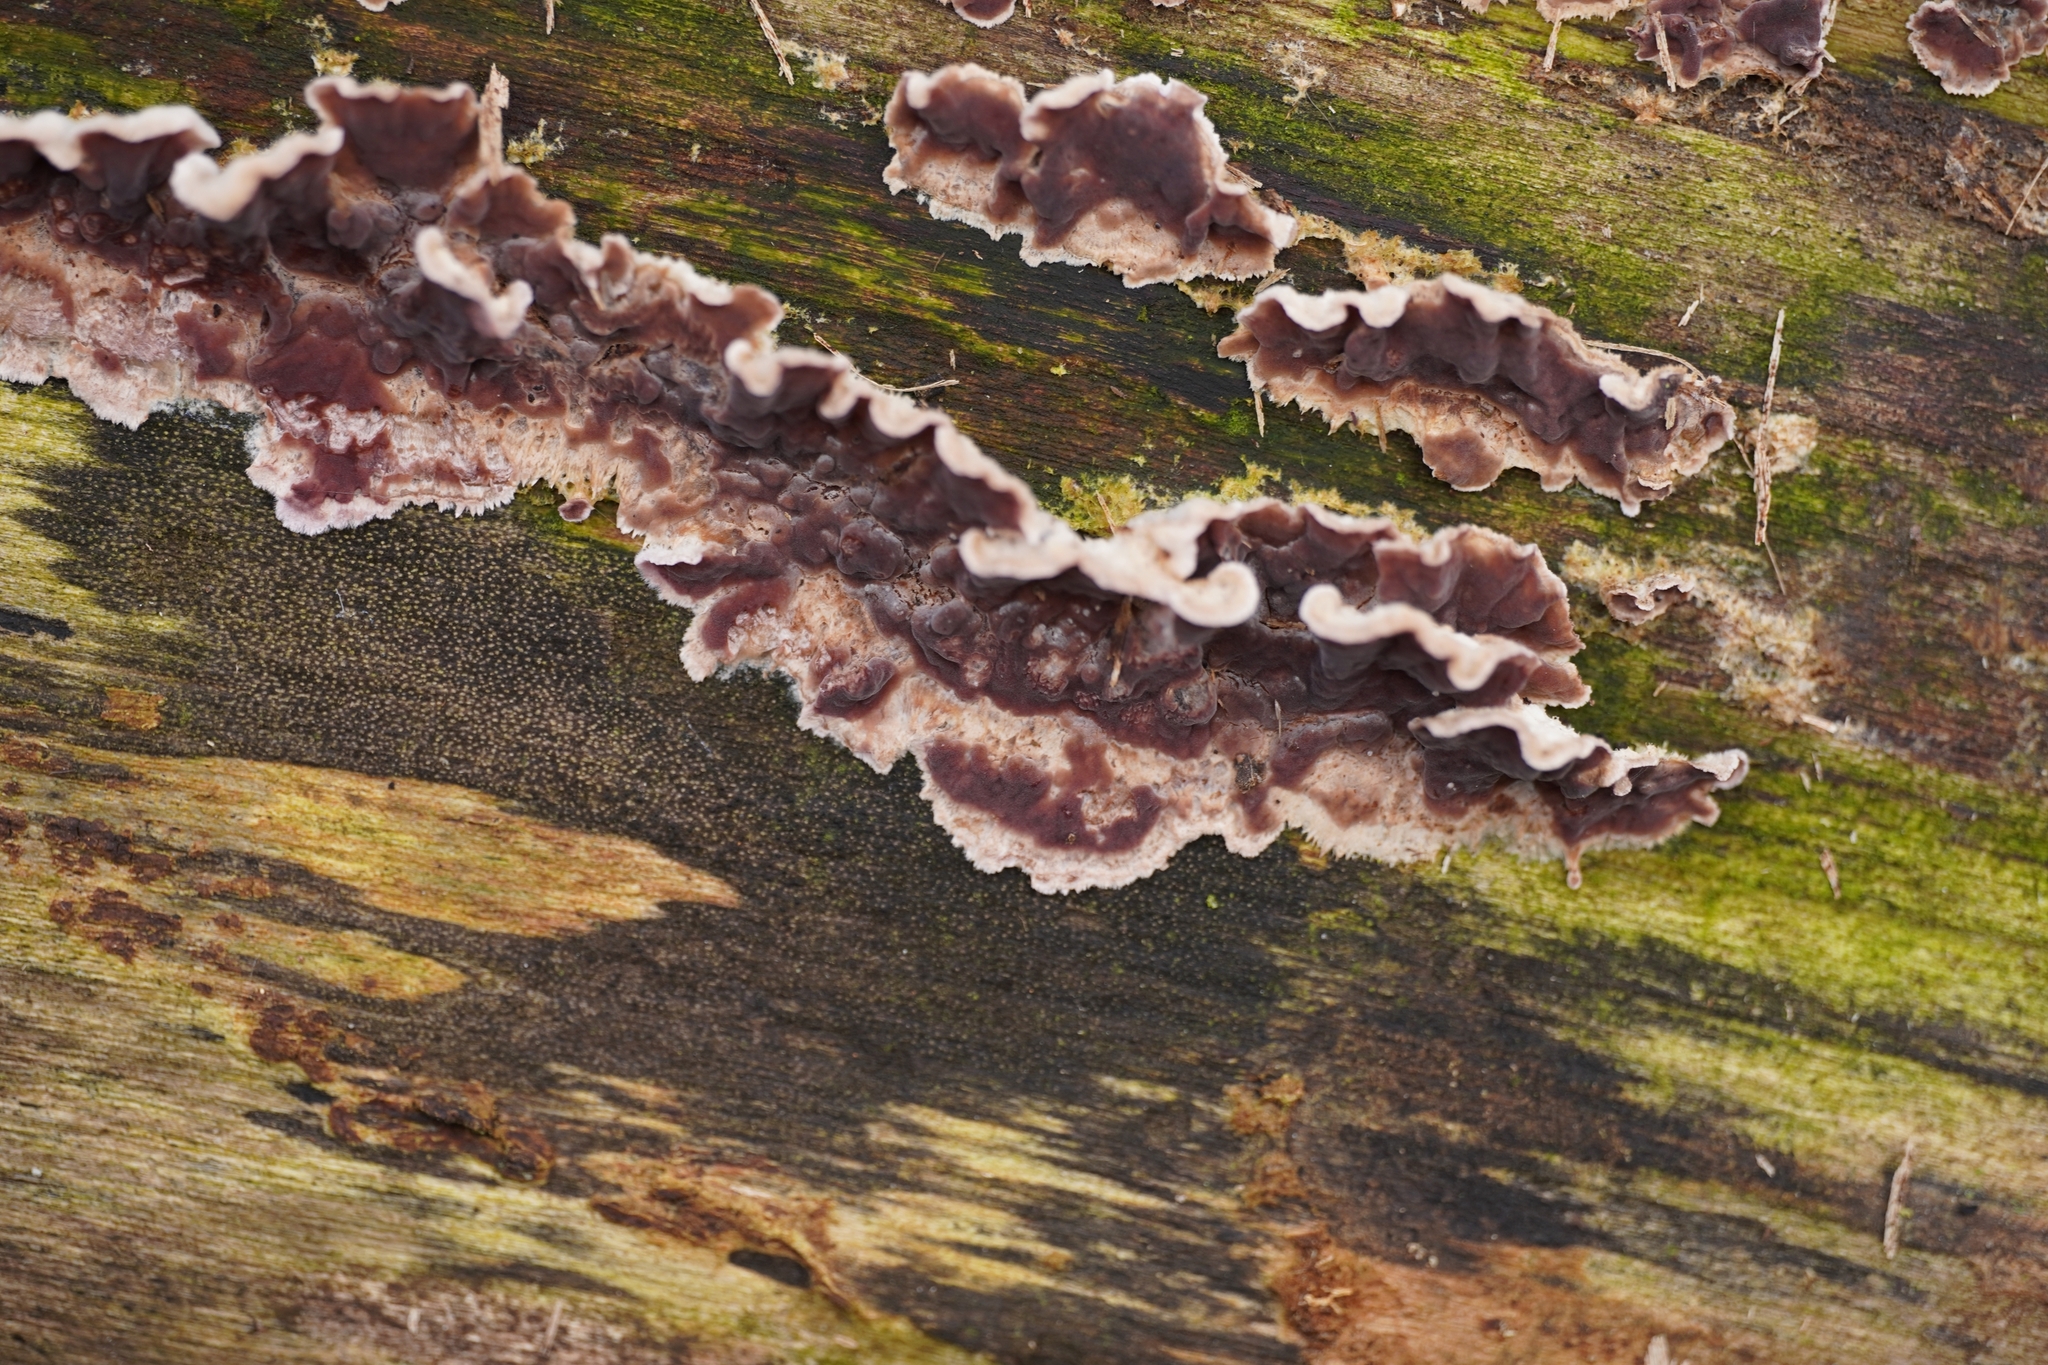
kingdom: Fungi
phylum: Basidiomycota
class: Agaricomycetes
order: Agaricales
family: Cyphellaceae
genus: Chondrostereum
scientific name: Chondrostereum purpureum
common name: Silver leaf disease
